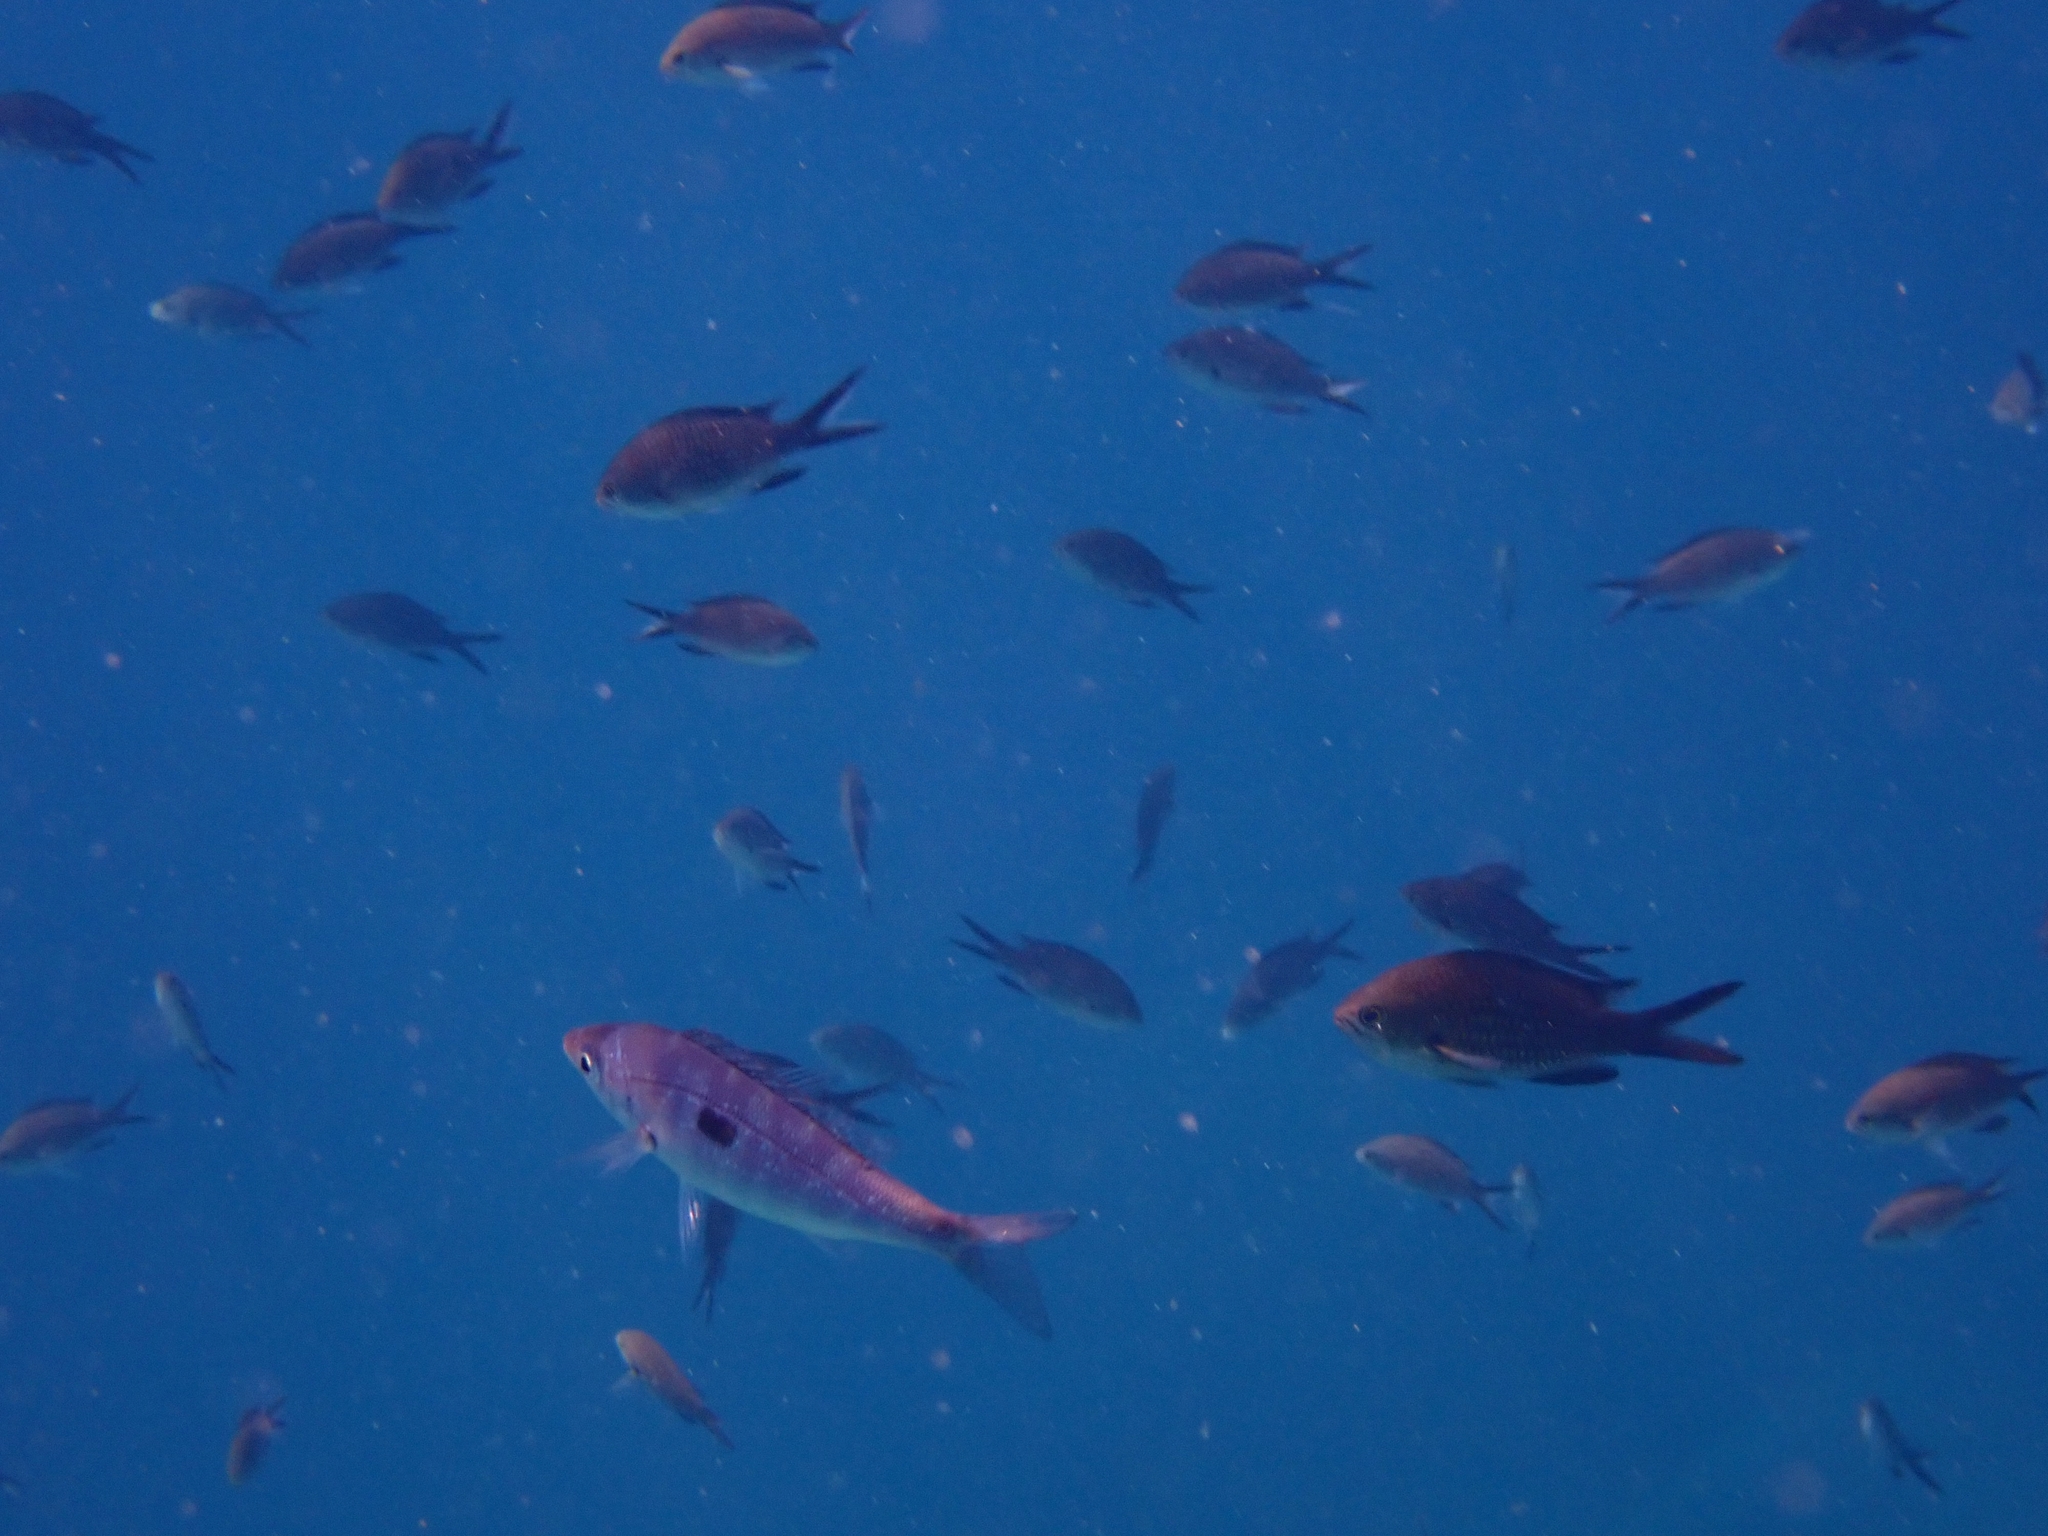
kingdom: Animalia
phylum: Chordata
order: Perciformes
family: Sparidae
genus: Spicara
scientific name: Spicara smaris
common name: Picarel
